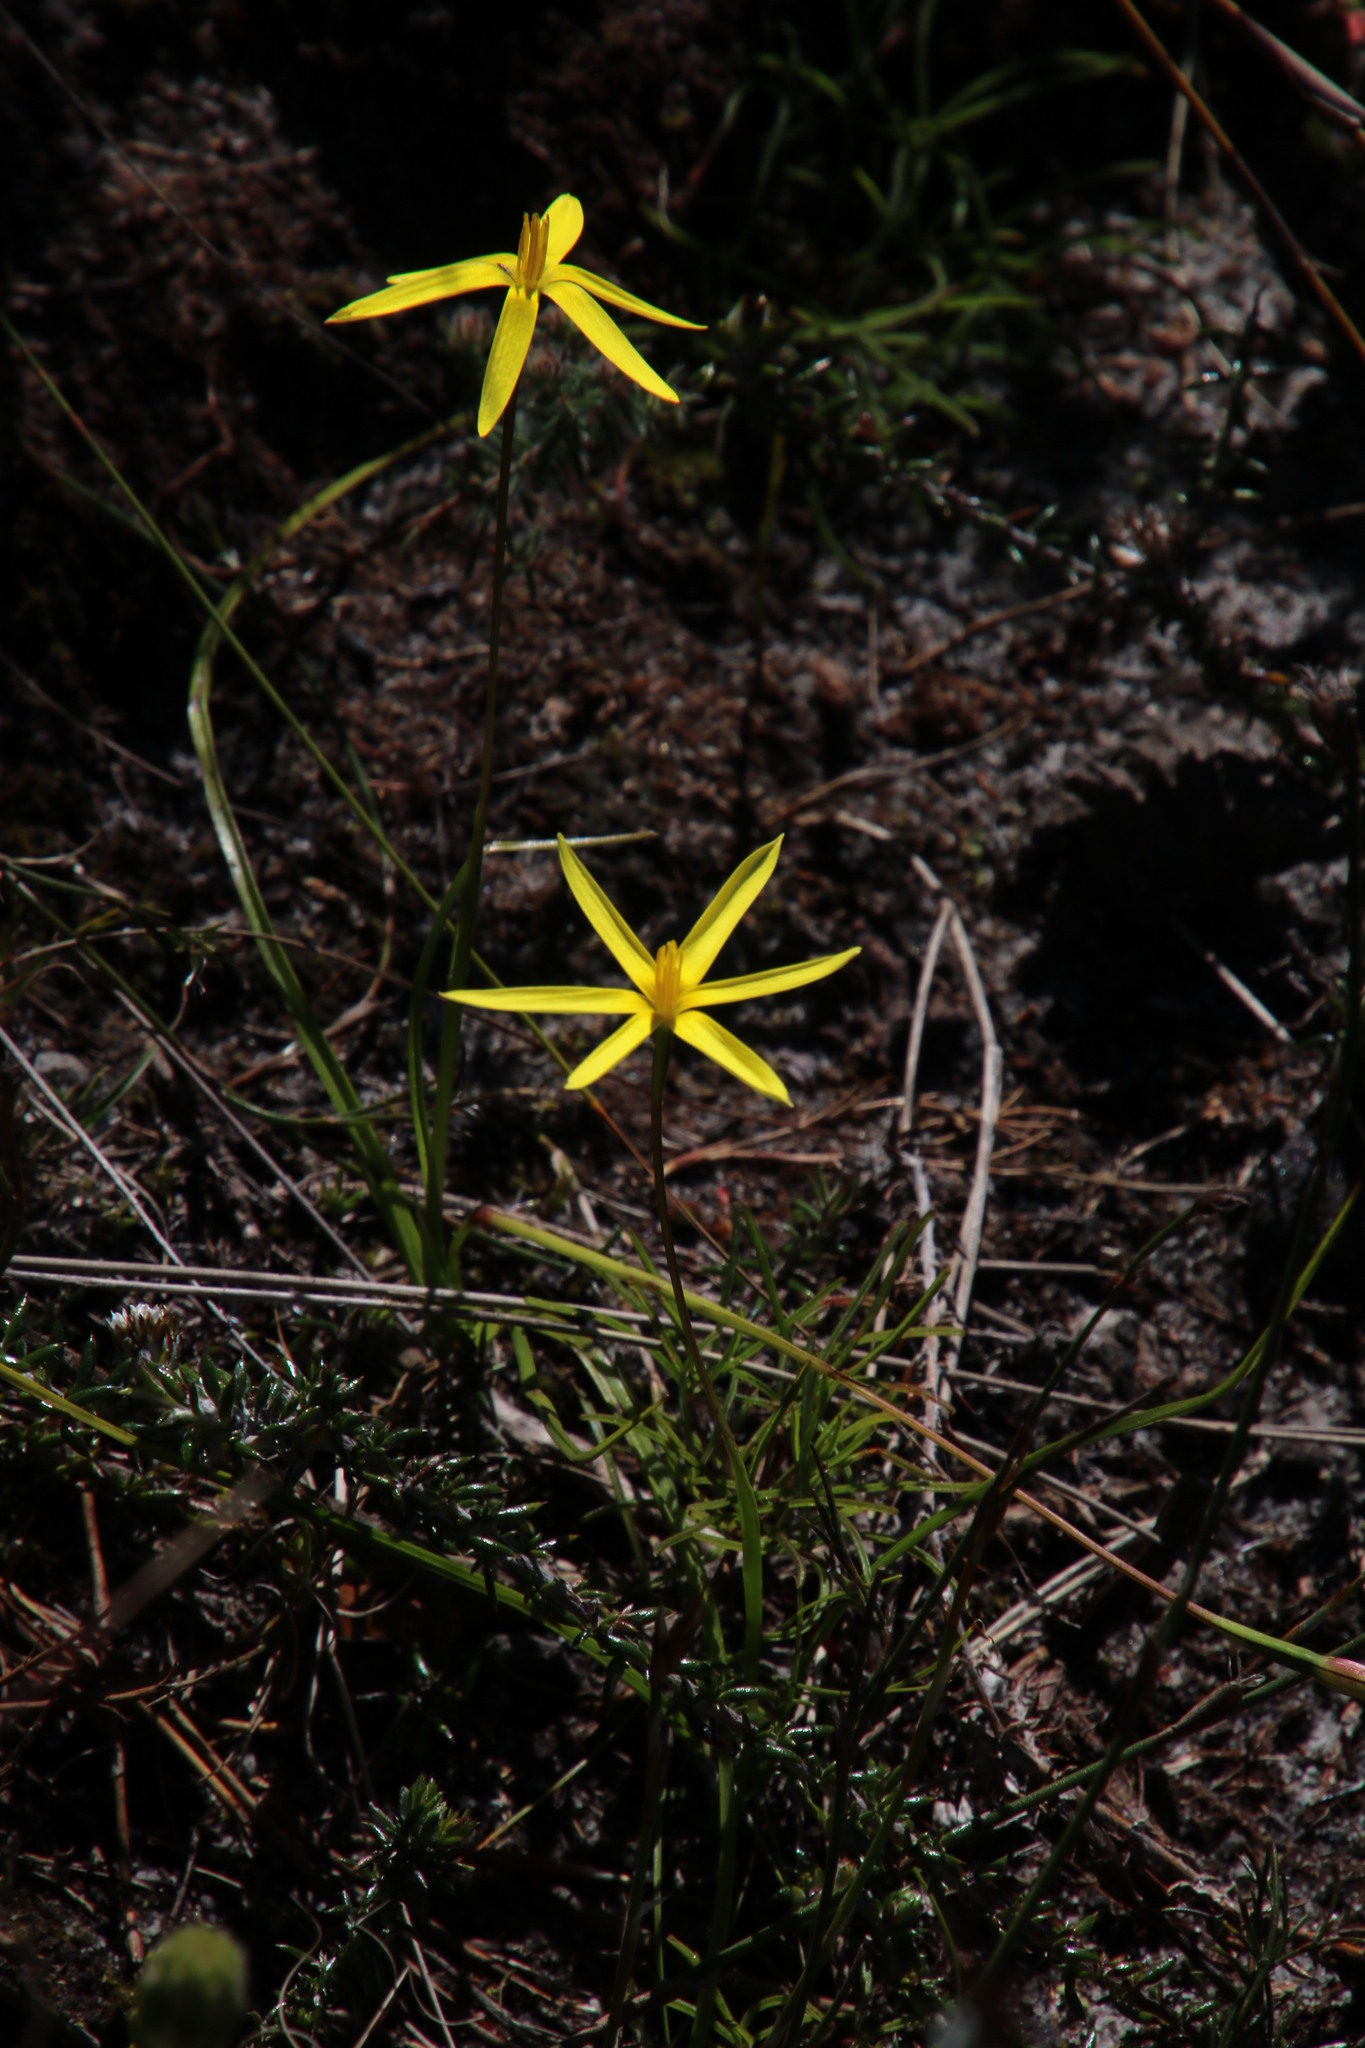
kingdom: Plantae
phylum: Tracheophyta
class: Liliopsida
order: Asparagales
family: Hypoxidaceae
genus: Pauridia
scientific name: Pauridia capensis
